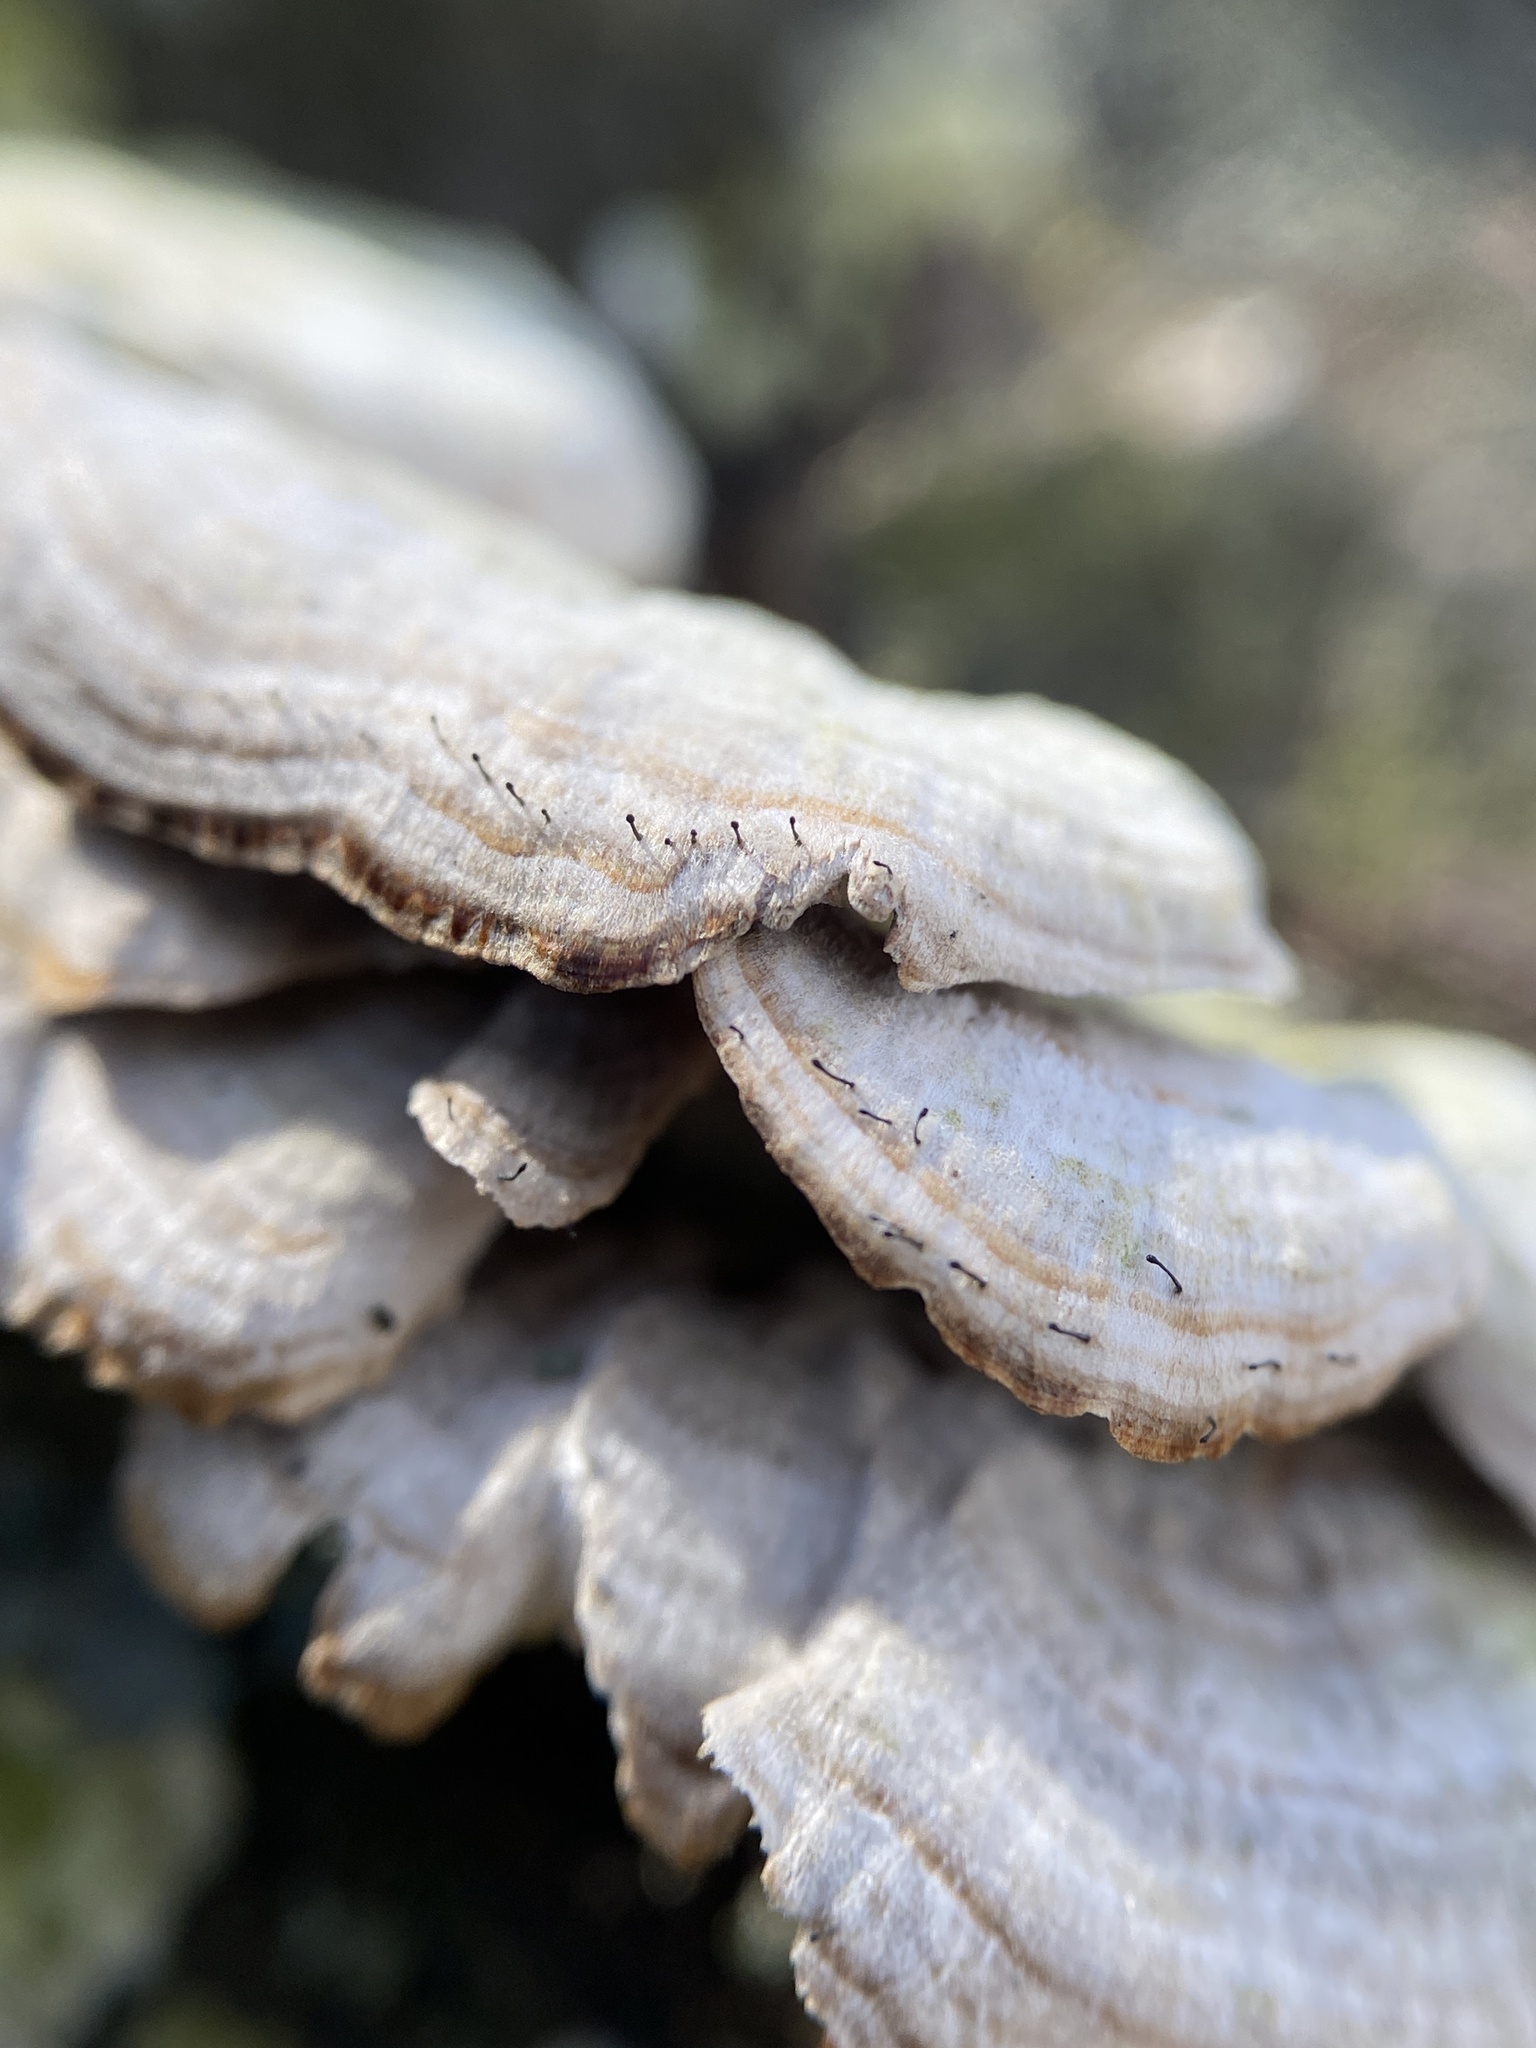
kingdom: Fungi
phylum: Ascomycota
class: Eurotiomycetes
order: Mycocaliciales
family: Mycocaliciaceae
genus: Phaeocalicium
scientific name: Phaeocalicium polyporaeum
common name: Fairy pins
